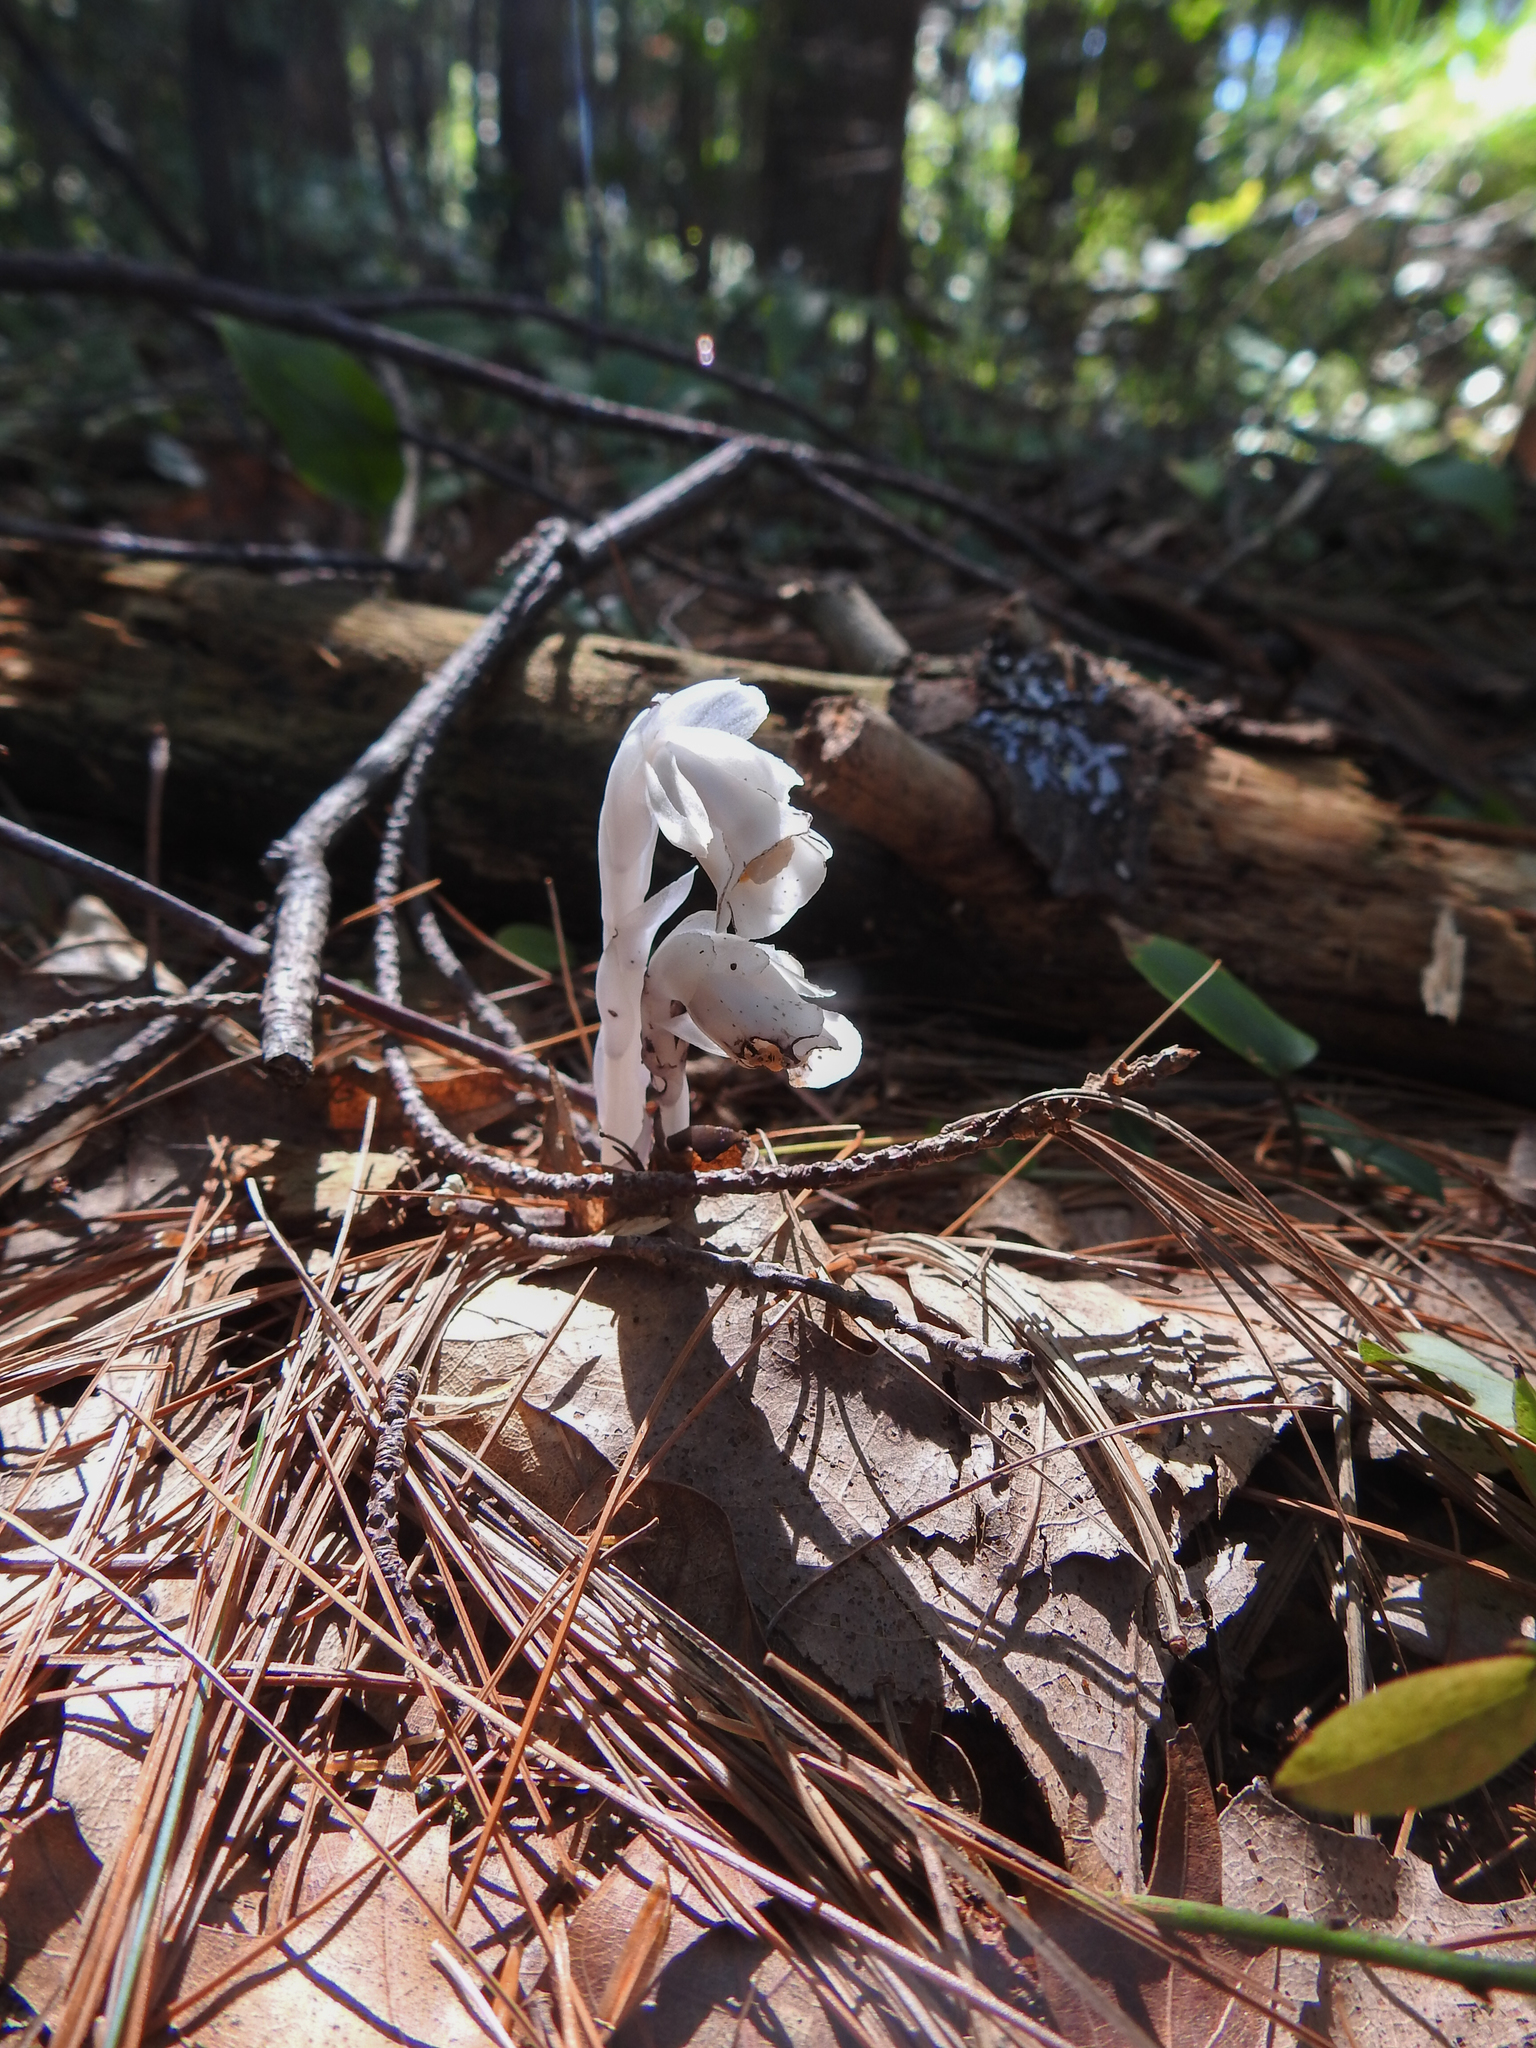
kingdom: Plantae
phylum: Tracheophyta
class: Magnoliopsida
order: Ericales
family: Ericaceae
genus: Monotropa
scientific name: Monotropa uniflora
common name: Convulsion root
